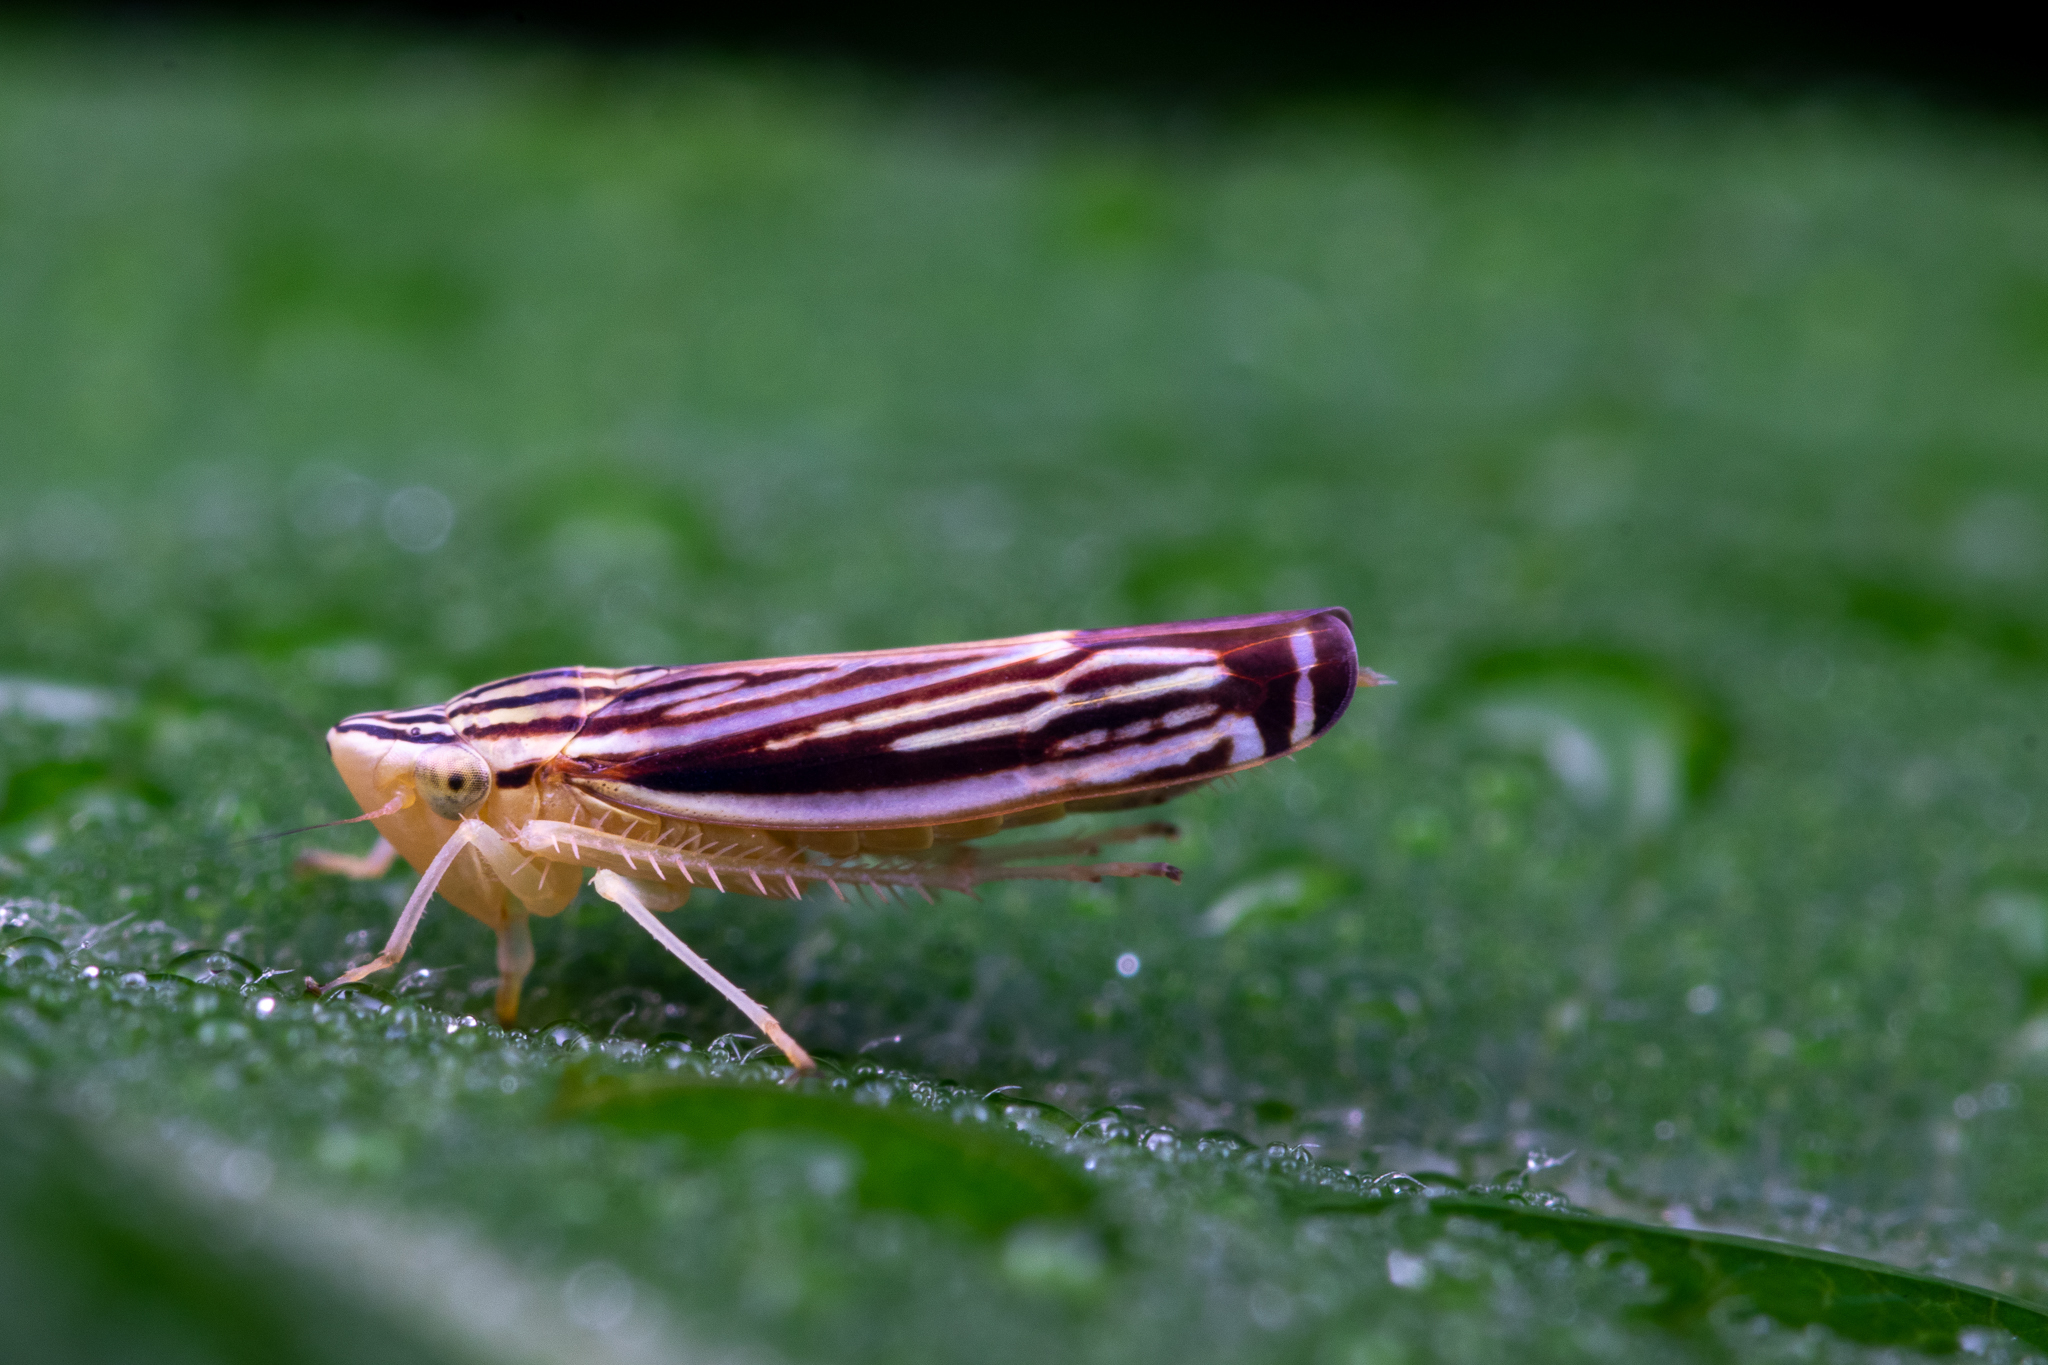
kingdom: Animalia
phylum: Arthropoda
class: Insecta
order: Hemiptera
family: Cicadellidae
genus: Sibovia
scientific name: Sibovia occatoria
